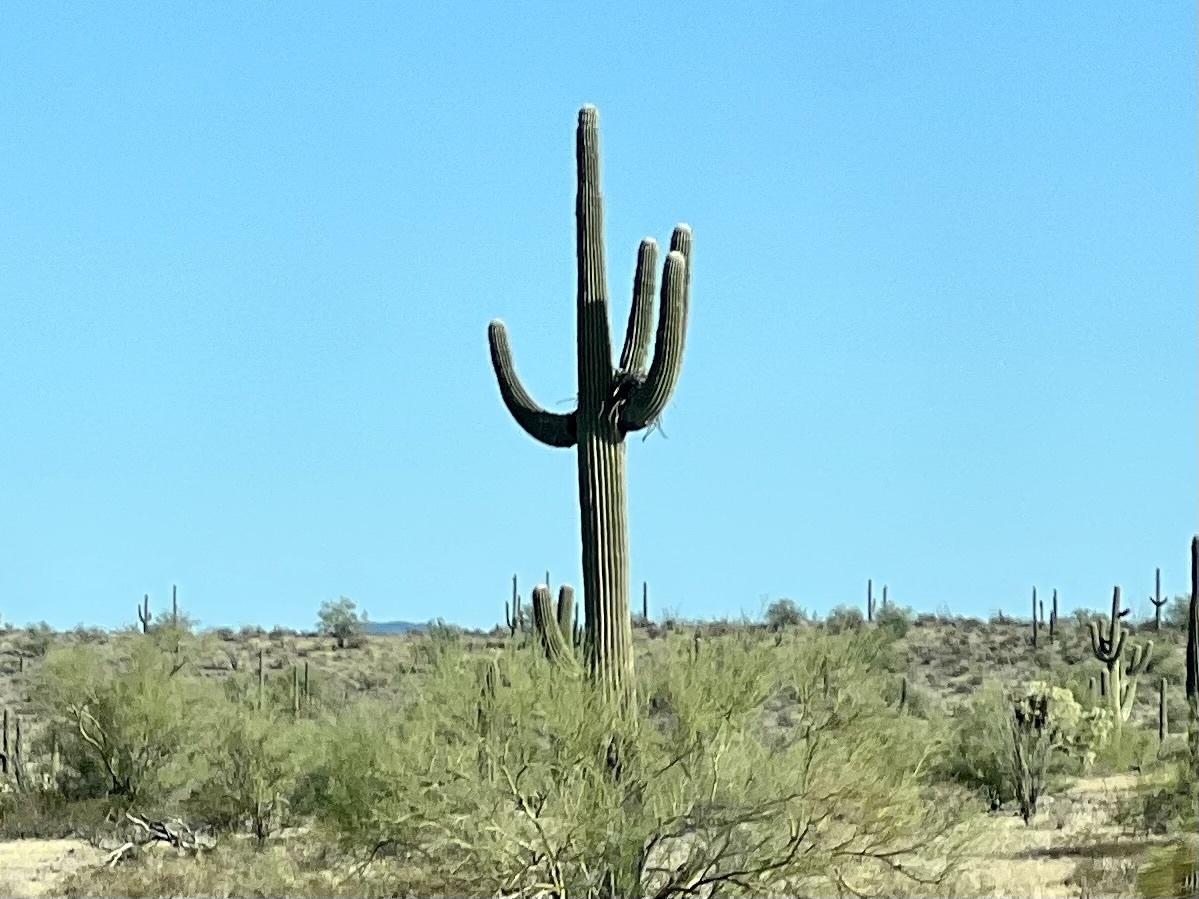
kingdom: Plantae
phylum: Tracheophyta
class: Magnoliopsida
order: Caryophyllales
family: Cactaceae
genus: Carnegiea
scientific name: Carnegiea gigantea
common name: Saguaro
